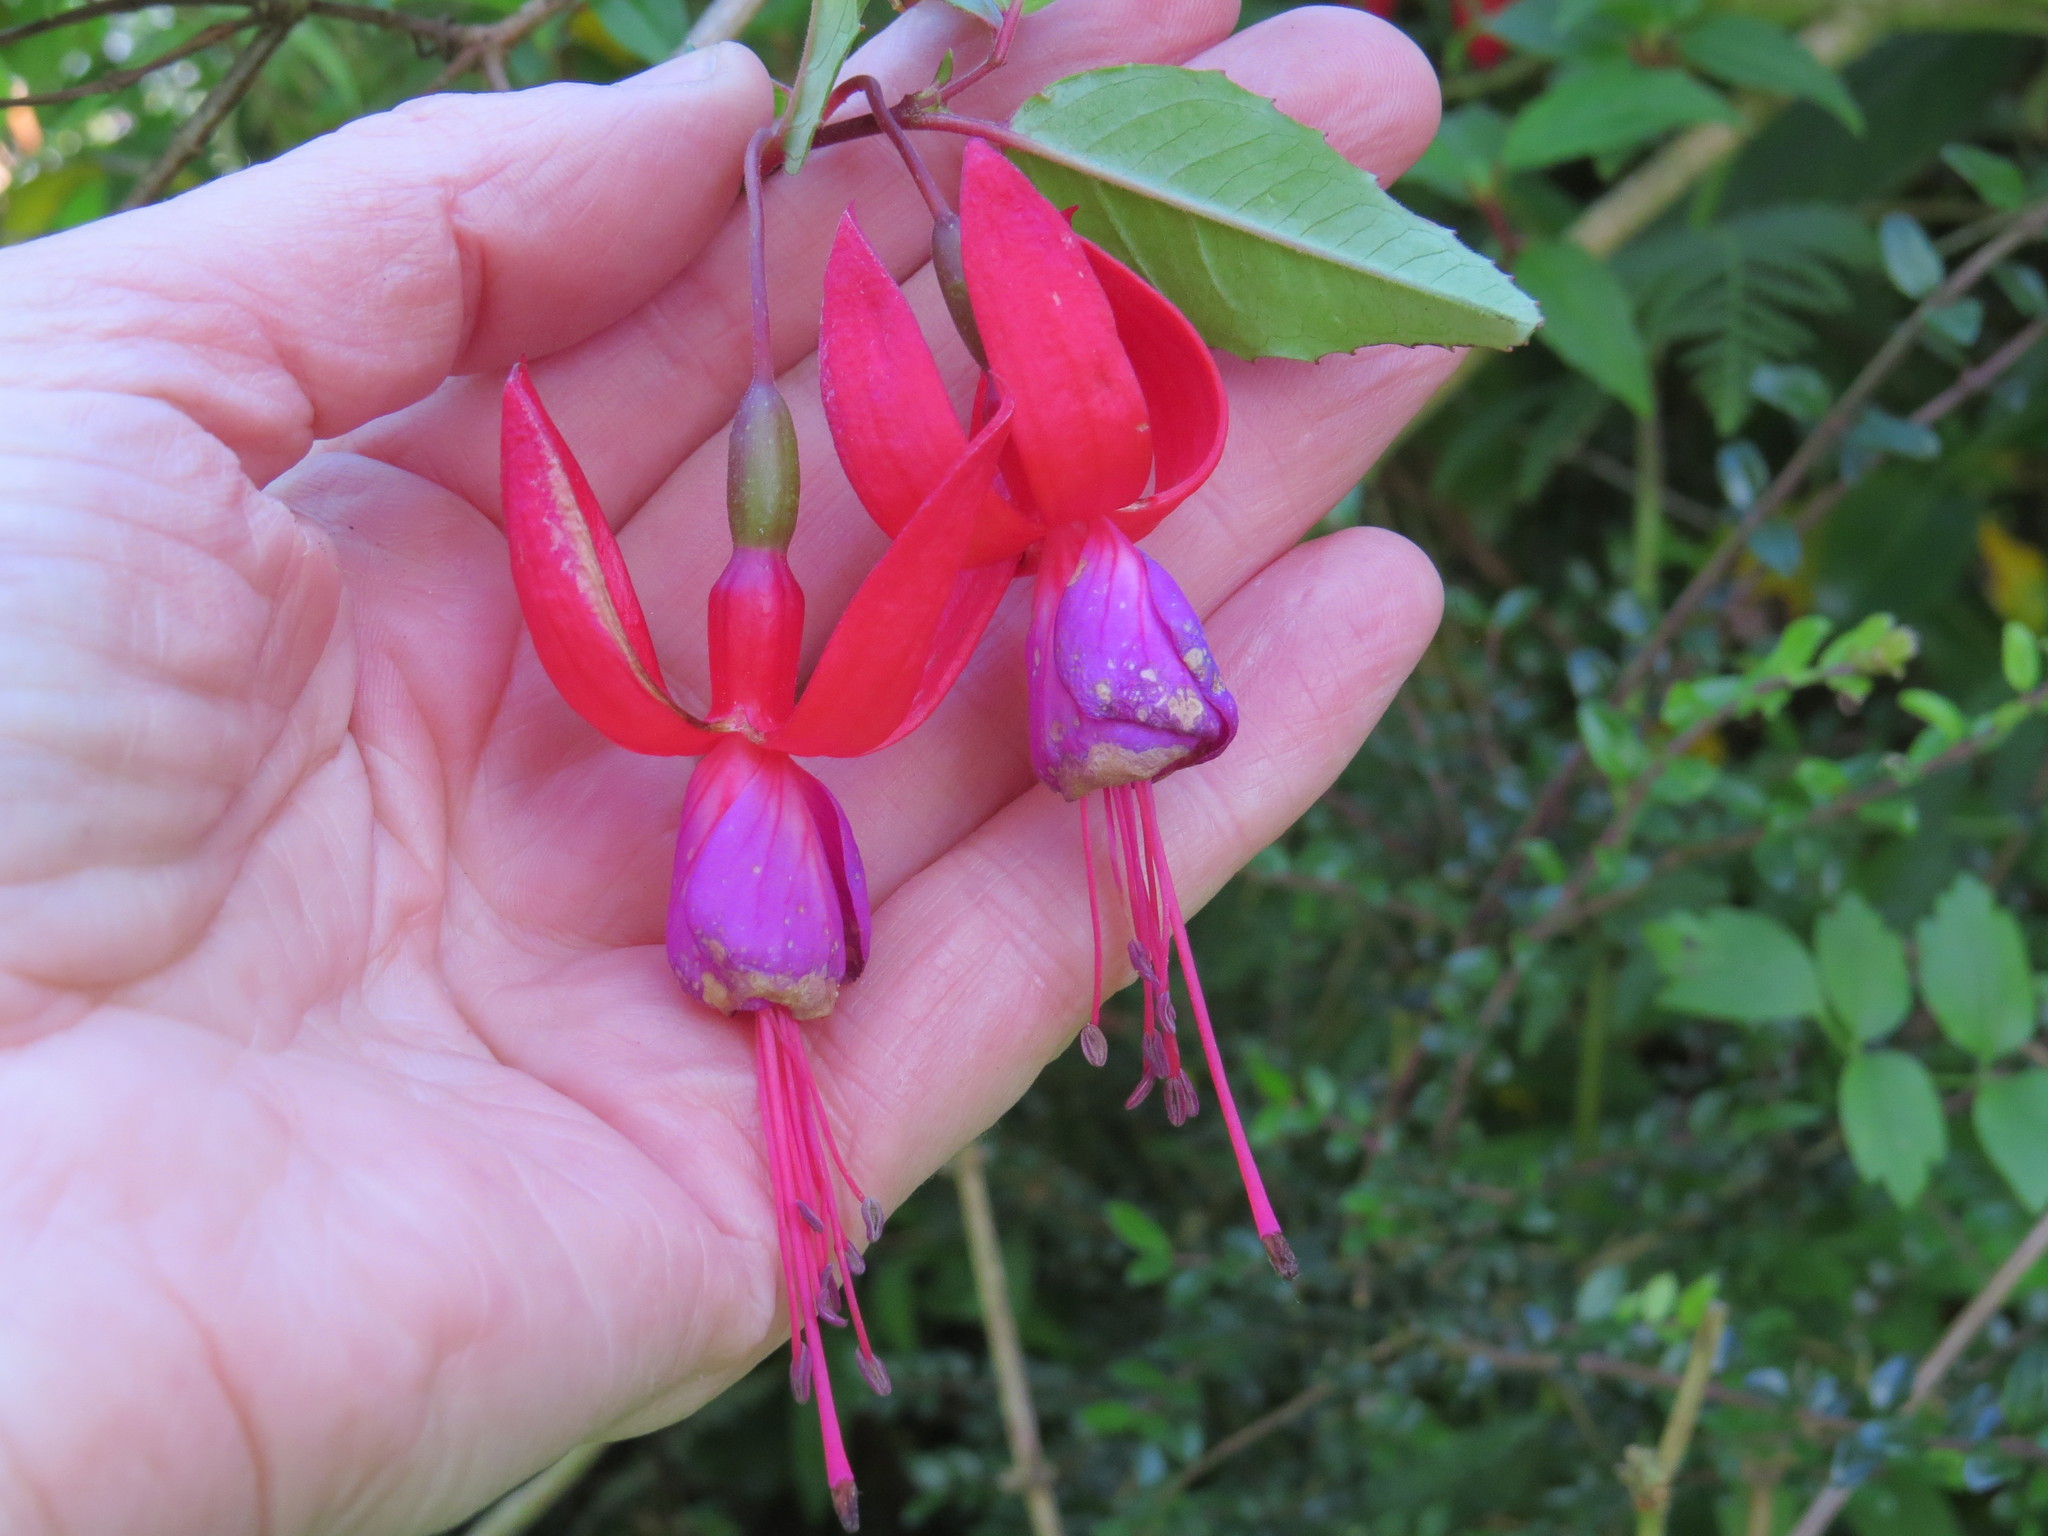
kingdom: Plantae
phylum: Tracheophyta
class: Magnoliopsida
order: Myrtales
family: Onagraceae
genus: Fuchsia
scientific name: Fuchsia magellanica
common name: Hardy fuchsia
